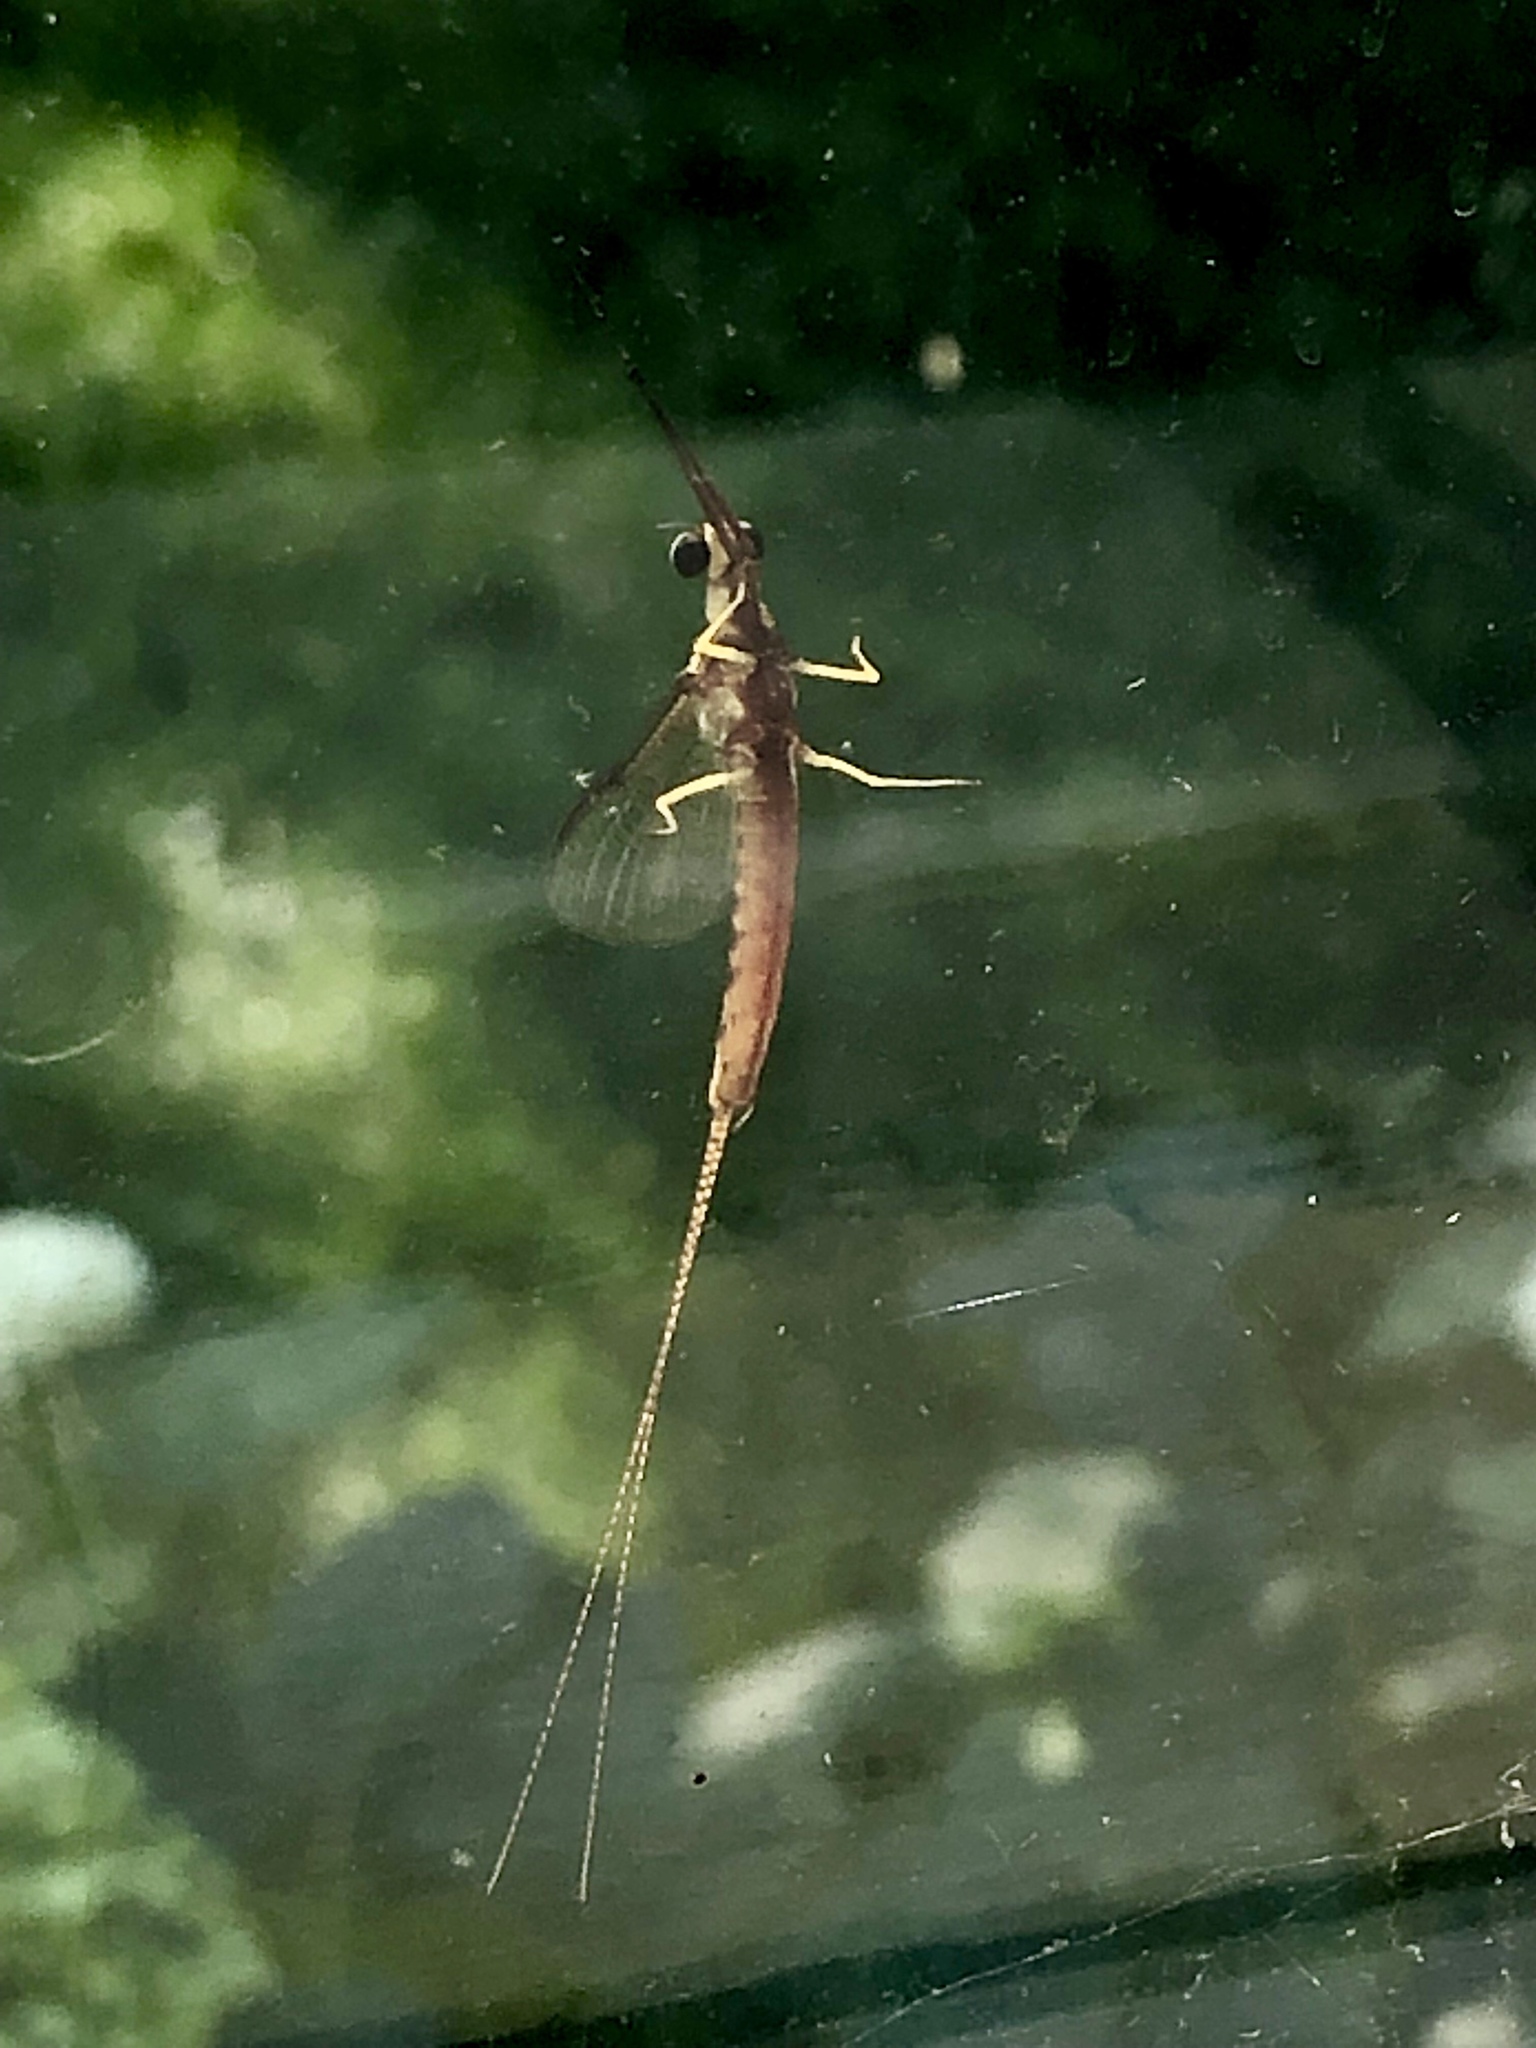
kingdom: Animalia
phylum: Arthropoda
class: Insecta
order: Ephemeroptera
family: Ephemeridae
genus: Hexagenia
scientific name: Hexagenia limbata
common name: Giant mayfly
